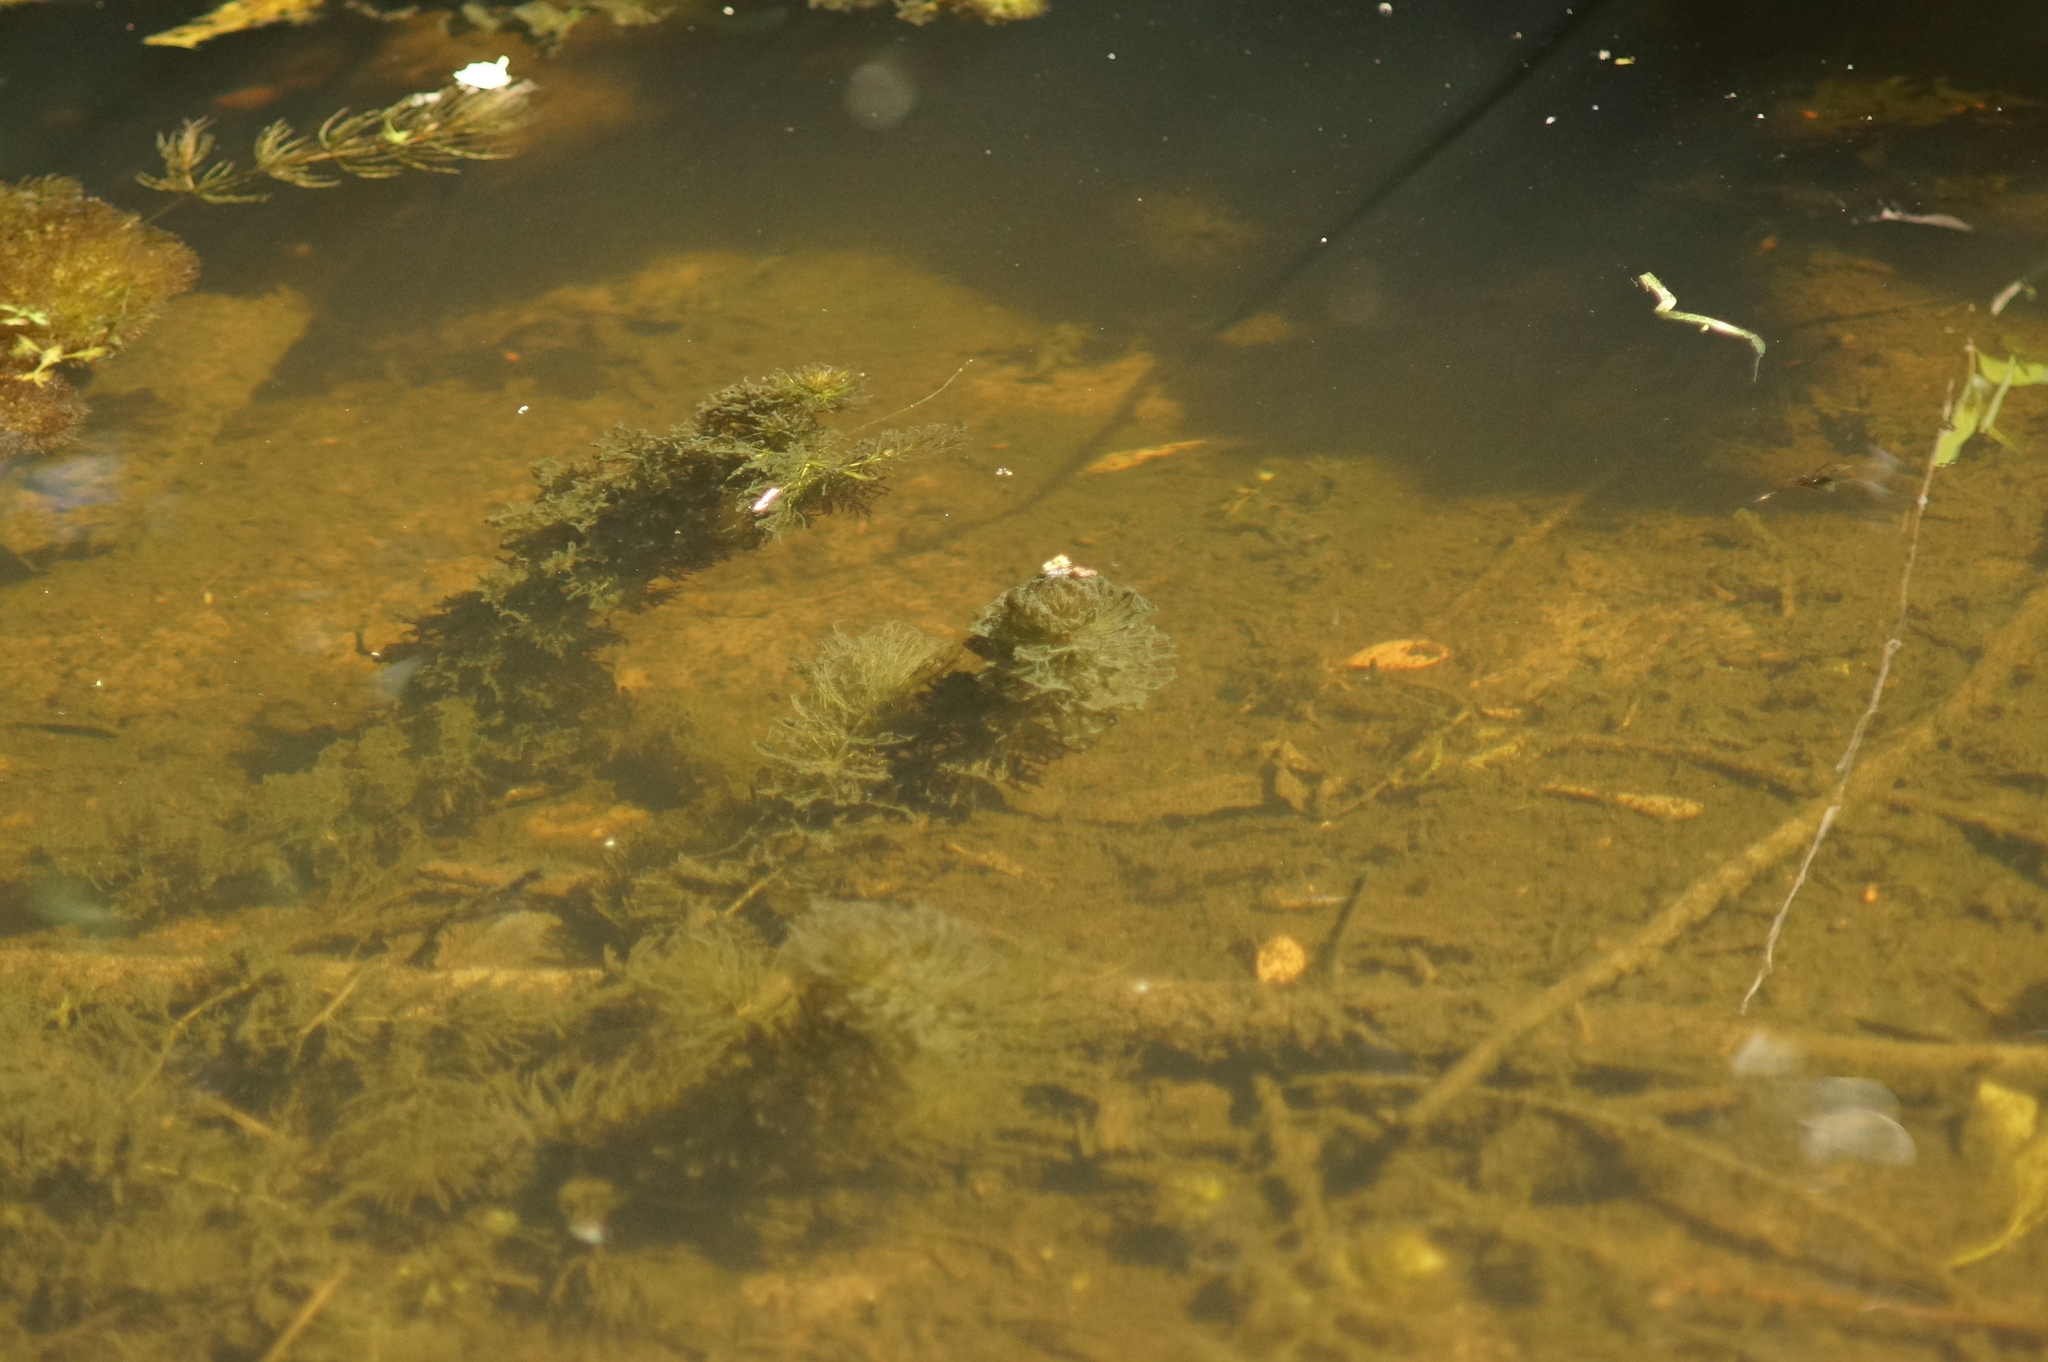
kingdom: Plantae
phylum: Tracheophyta
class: Magnoliopsida
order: Ceratophyllales
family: Ceratophyllaceae
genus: Ceratophyllum
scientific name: Ceratophyllum demersum
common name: Rigid hornwort
